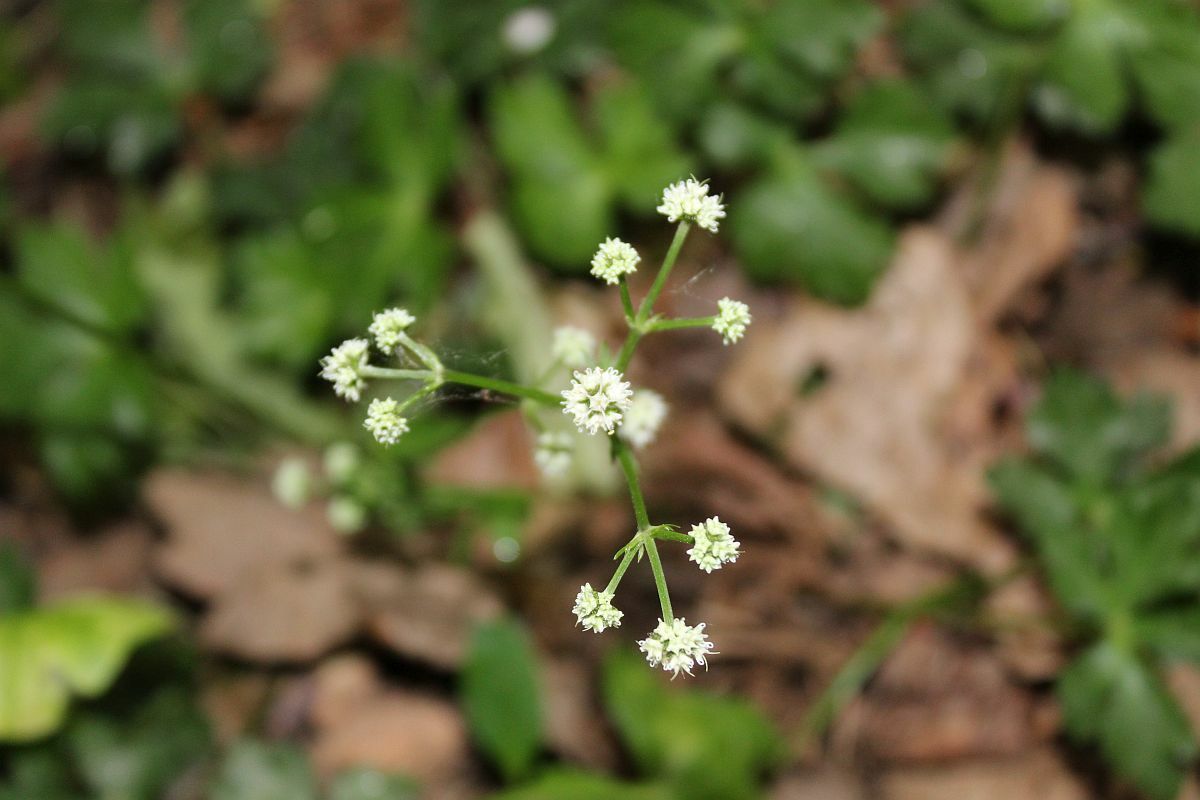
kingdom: Plantae
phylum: Tracheophyta
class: Magnoliopsida
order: Apiales
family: Apiaceae
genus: Sanicula
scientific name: Sanicula europaea
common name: Sanicle
